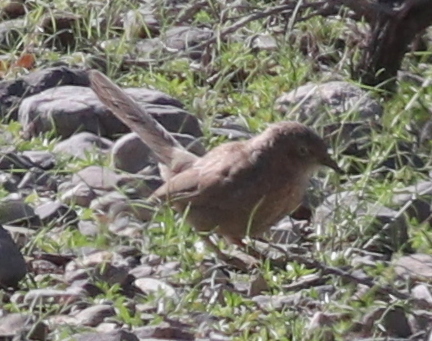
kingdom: Animalia
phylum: Chordata
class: Aves
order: Passeriformes
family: Leiothrichidae
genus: Turdoides
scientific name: Turdoides squamiceps
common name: Arabian babbler
